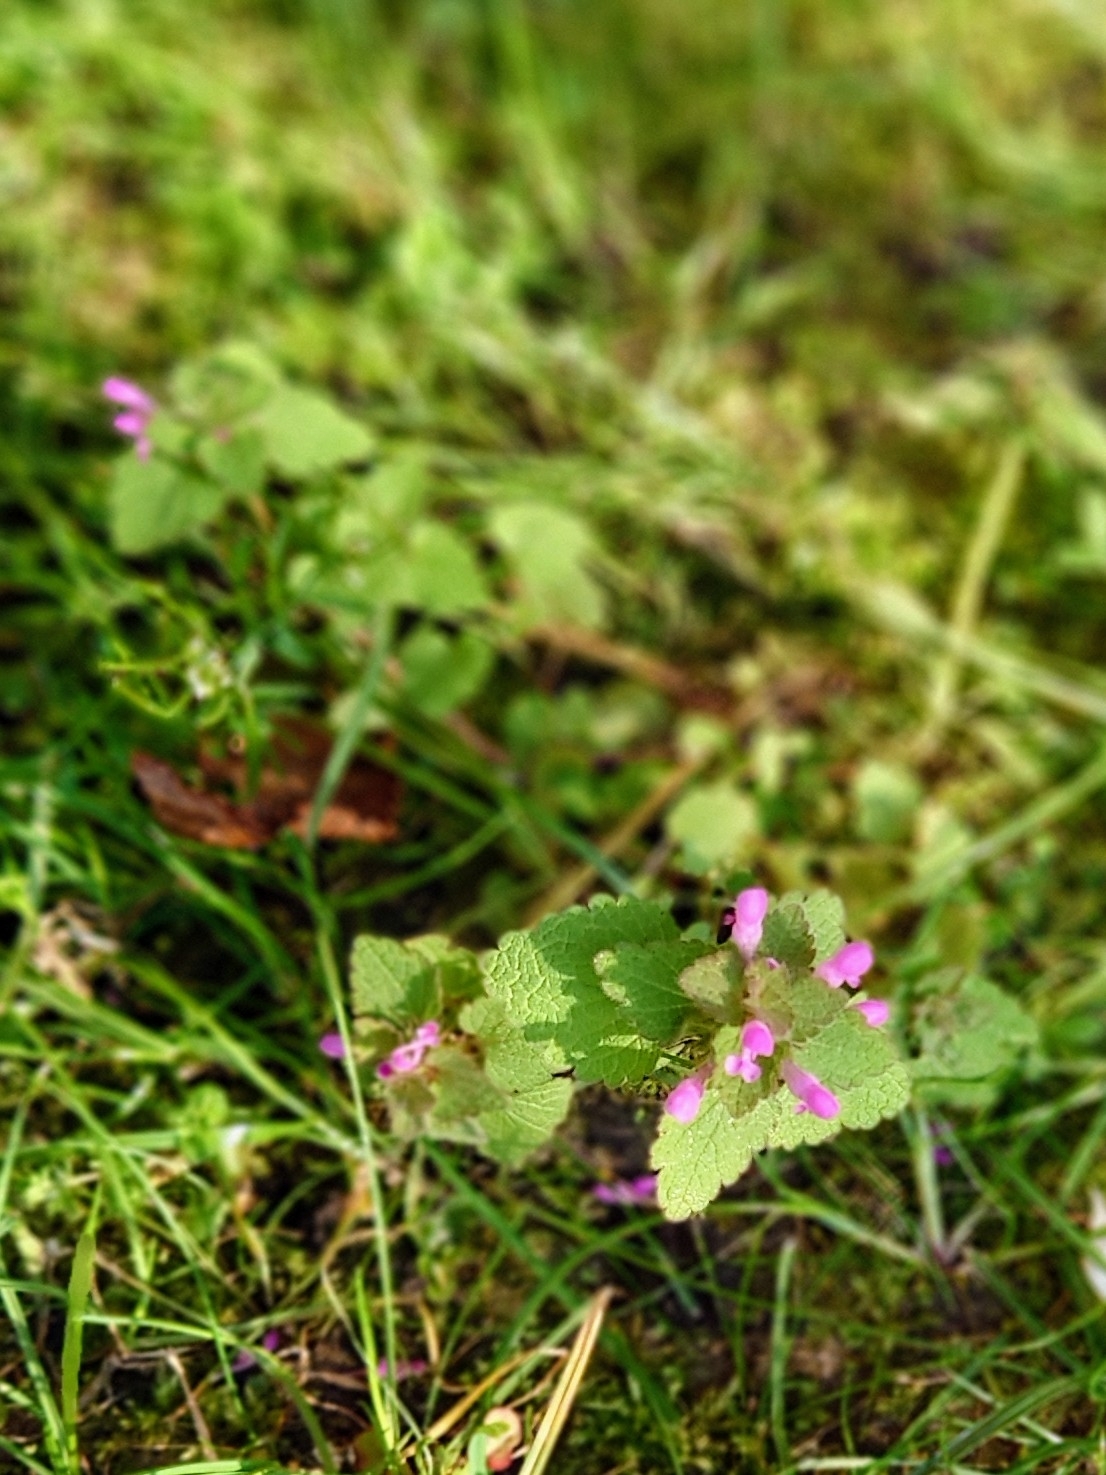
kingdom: Plantae
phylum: Tracheophyta
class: Magnoliopsida
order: Lamiales
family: Lamiaceae
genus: Lamium
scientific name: Lamium purpureum
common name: Red dead-nettle
